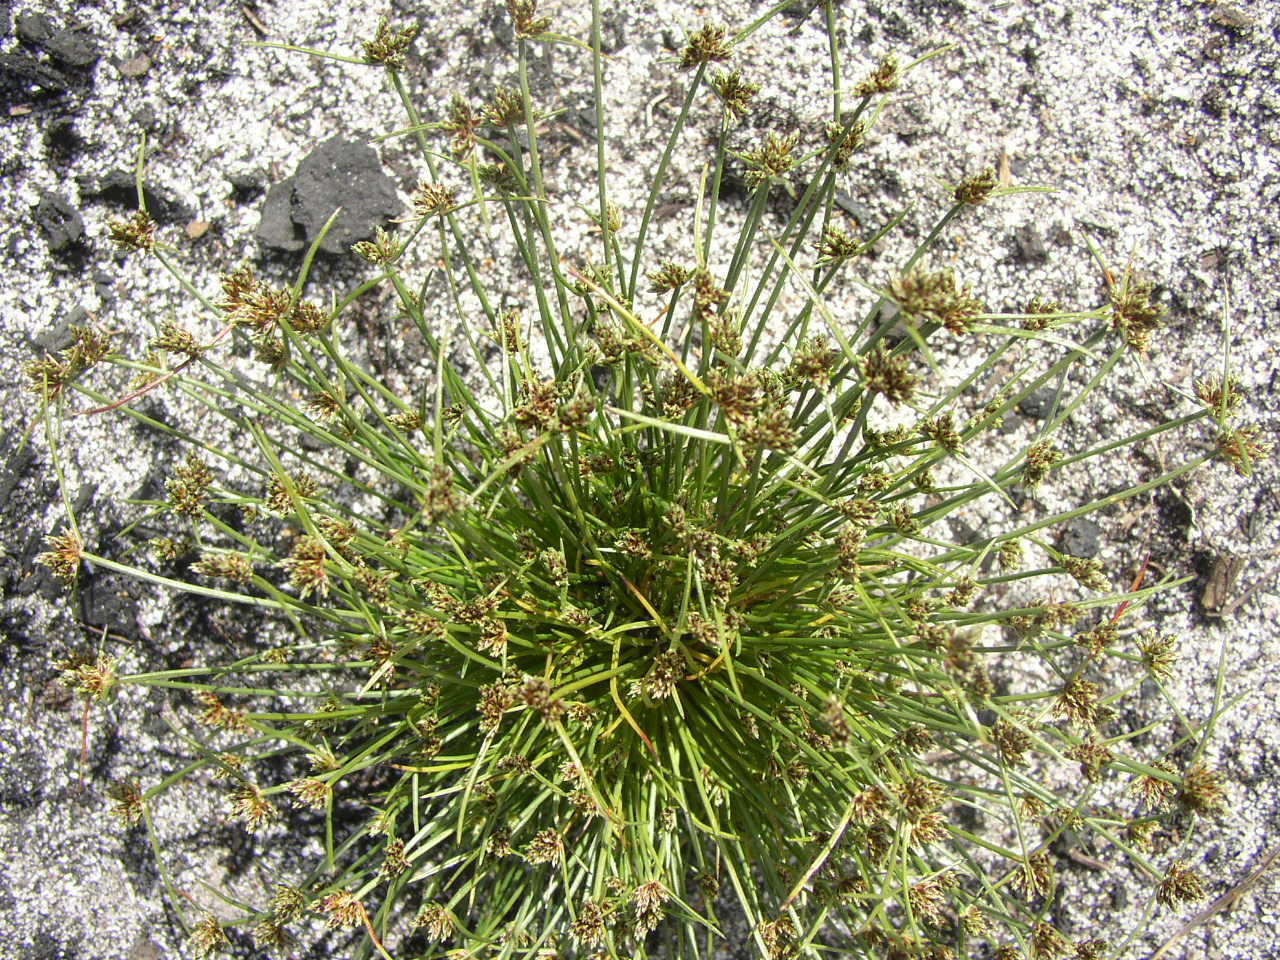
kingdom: Plantae
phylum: Tracheophyta
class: Liliopsida
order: Poales
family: Cyperaceae
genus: Isolepis
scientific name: Isolepis marginata
